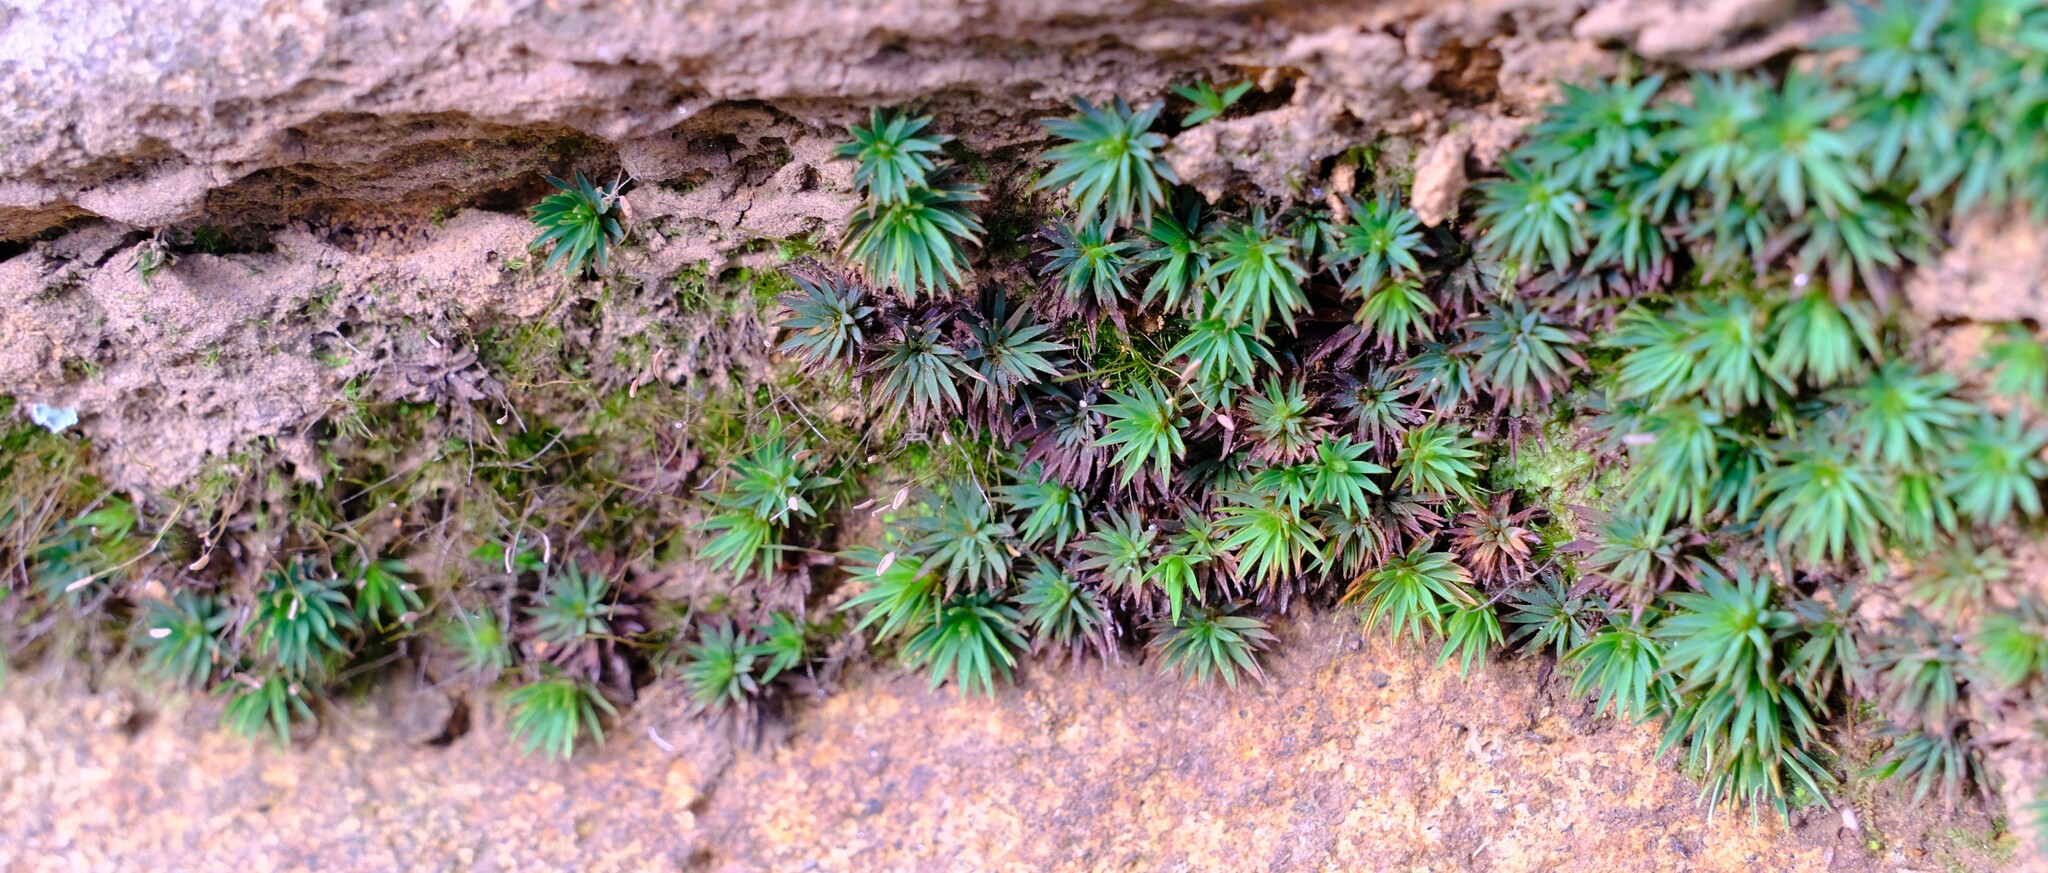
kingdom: Plantae
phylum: Bryophyta
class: Polytrichopsida
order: Polytrichales
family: Polytrichaceae
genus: Dawsonia
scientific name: Dawsonia longiseta
